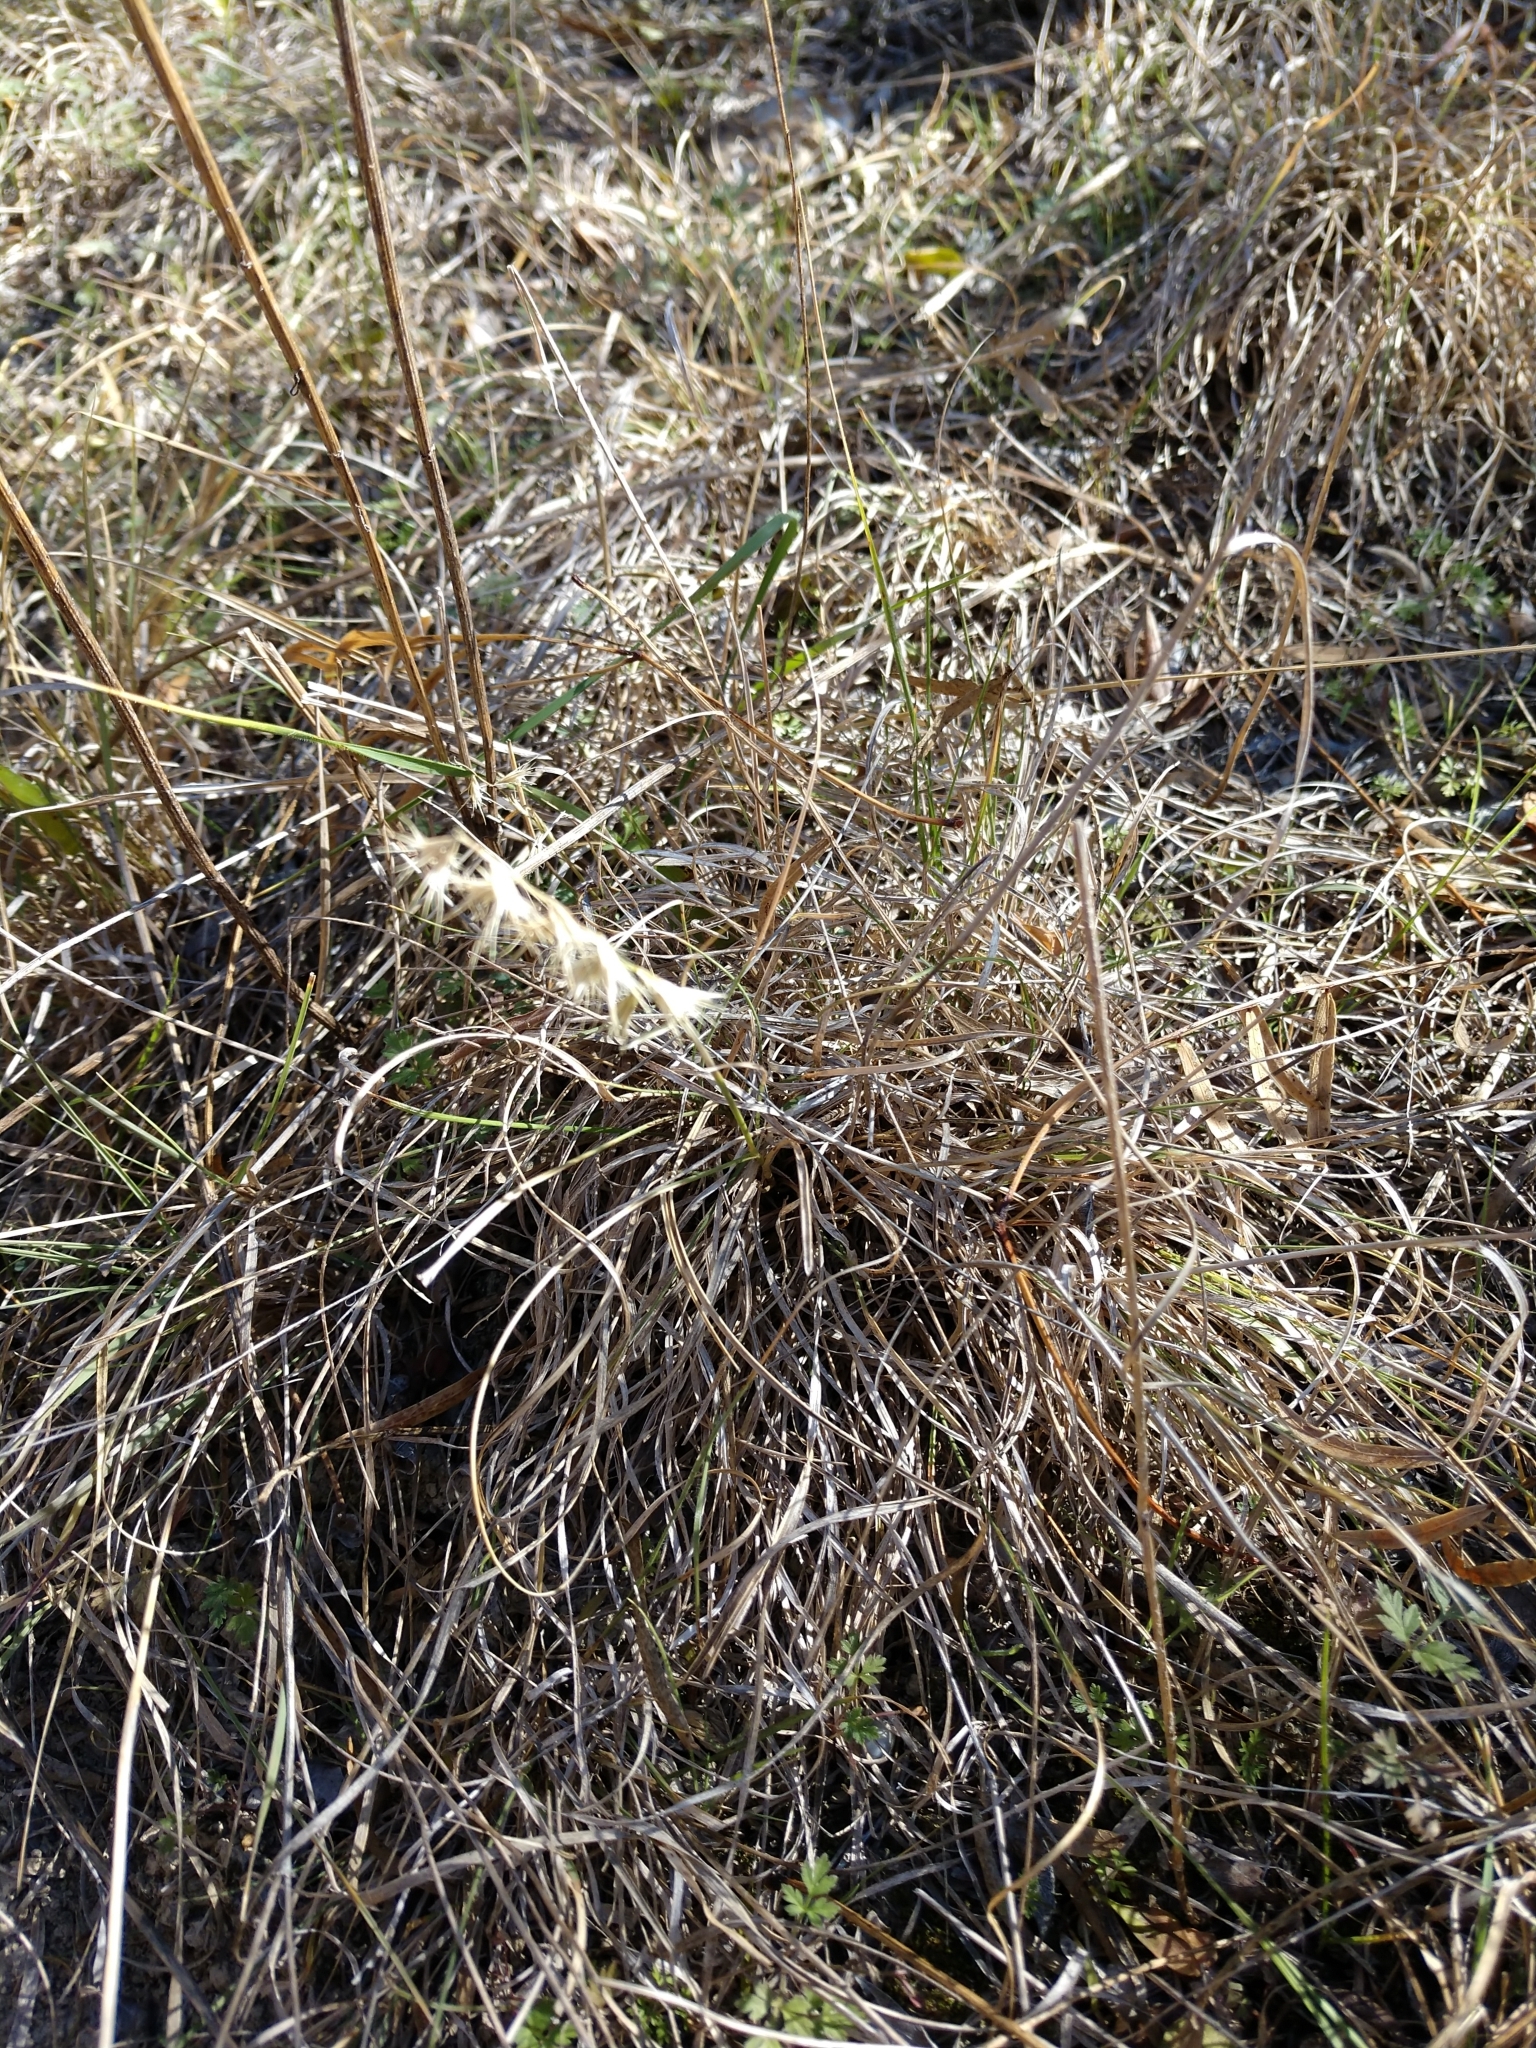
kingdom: Plantae
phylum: Tracheophyta
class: Liliopsida
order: Poales
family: Poaceae
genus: Bouteloua
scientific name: Bouteloua rigidiseta
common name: Texas grama
